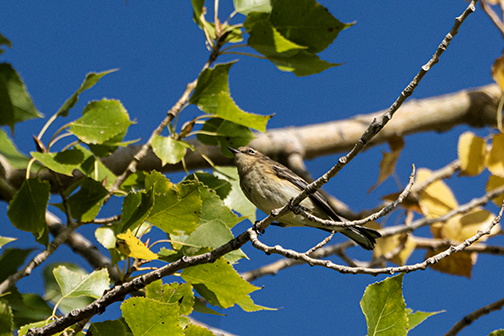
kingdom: Animalia
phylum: Chordata
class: Aves
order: Passeriformes
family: Parulidae
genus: Setophaga
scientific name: Setophaga coronata
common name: Myrtle warbler
